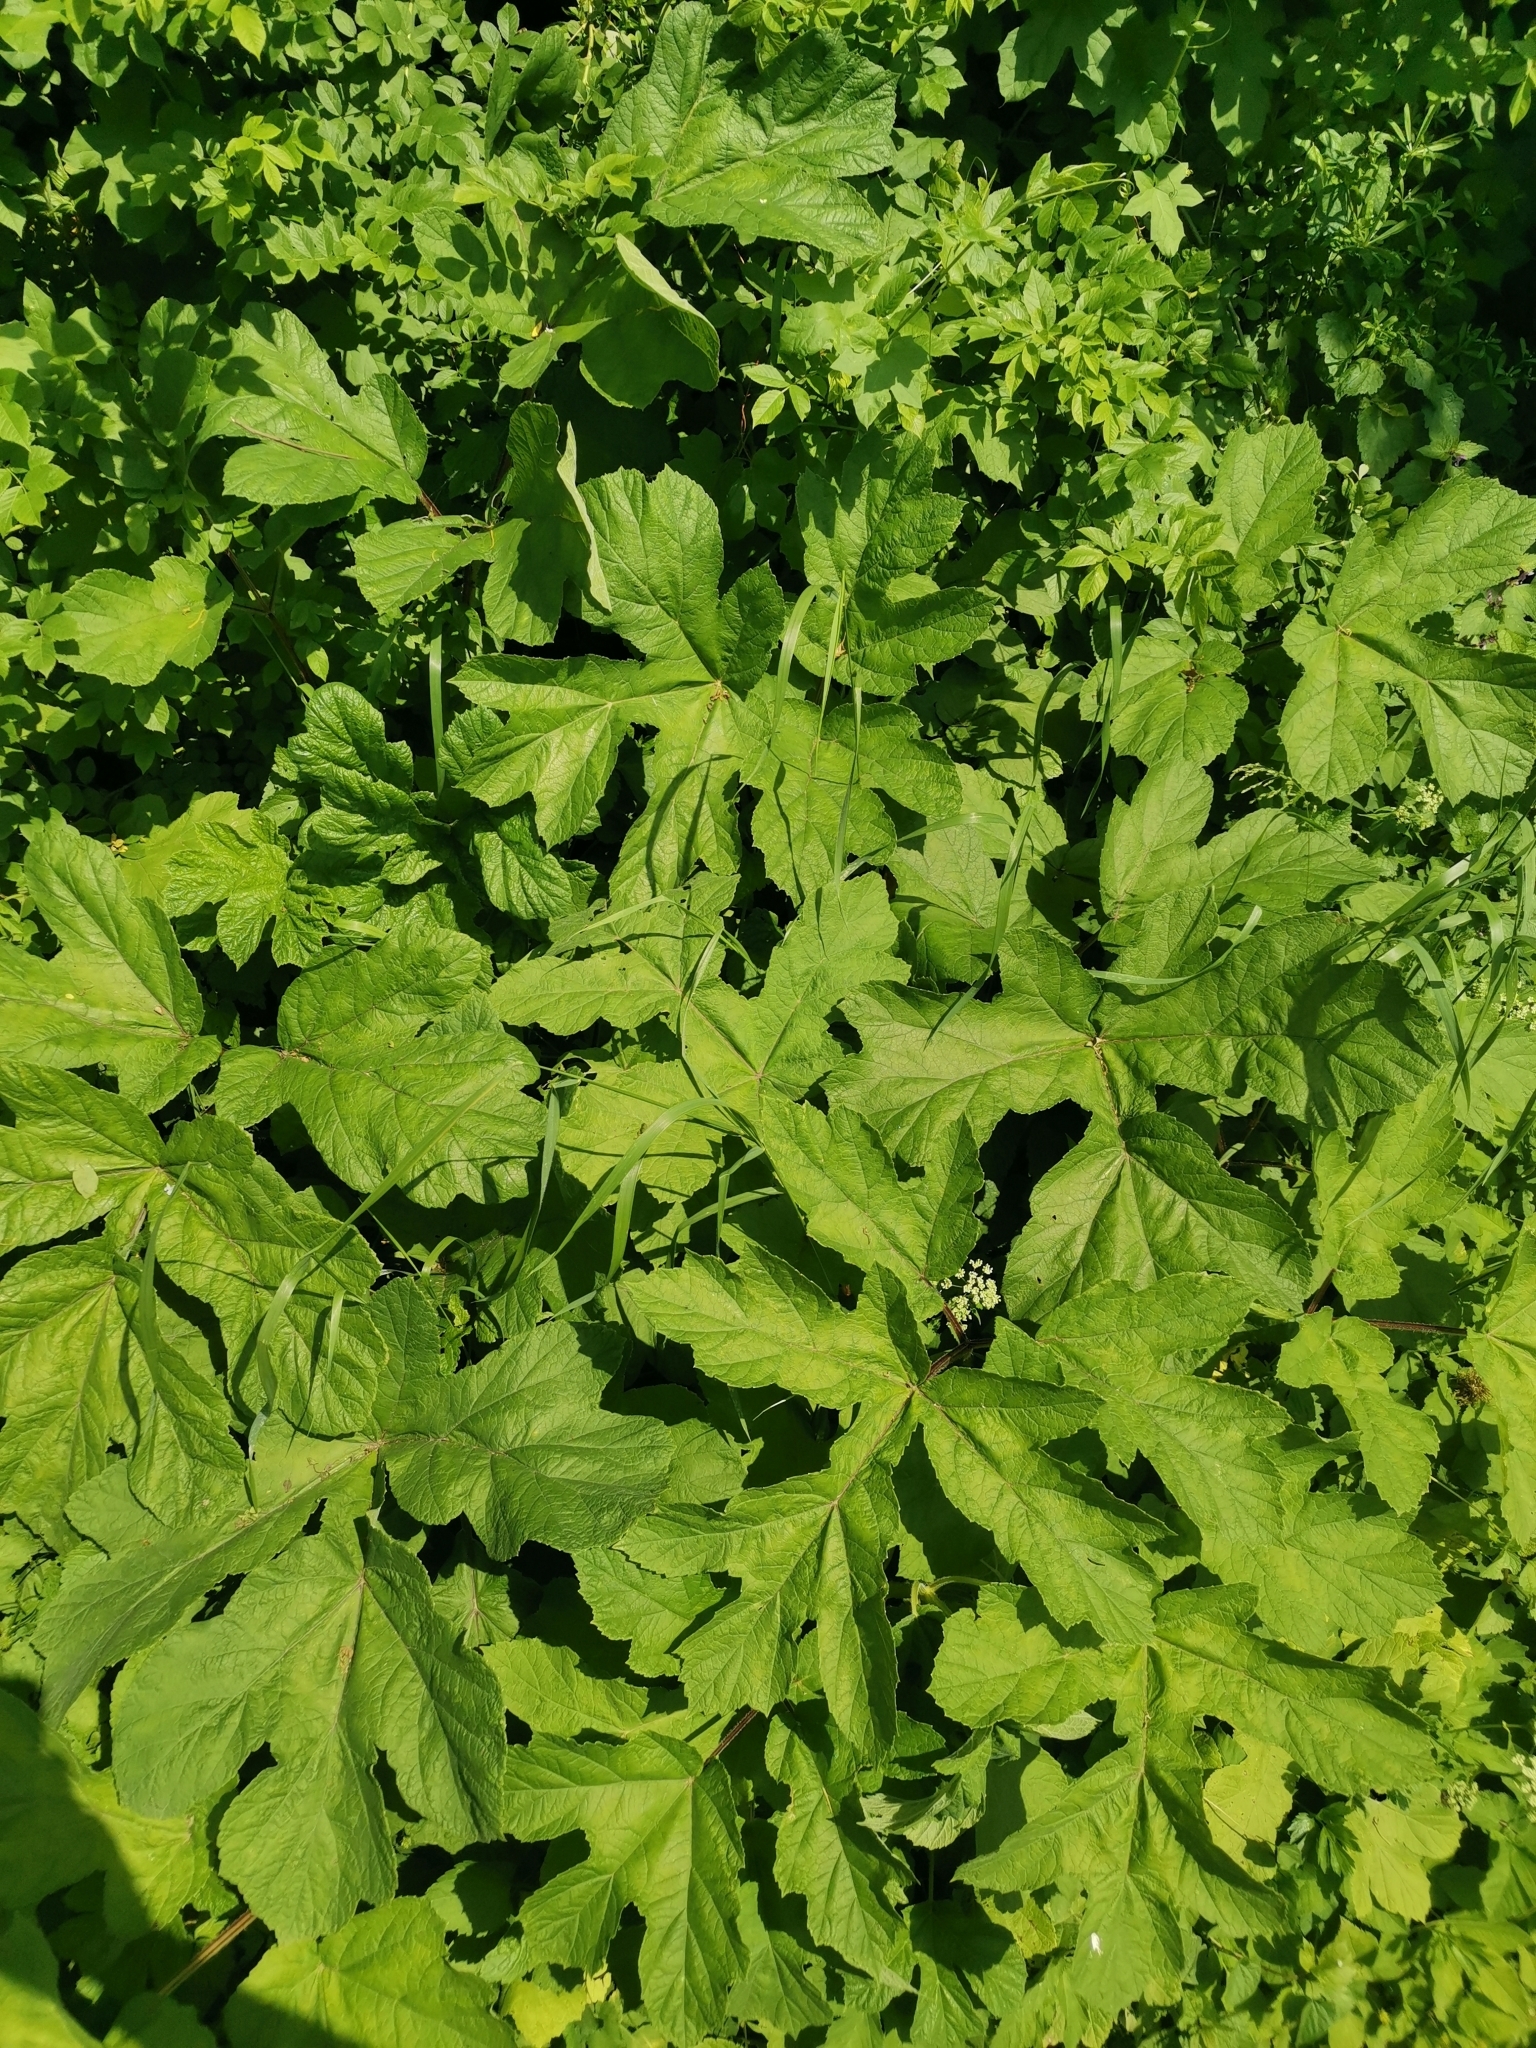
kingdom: Plantae
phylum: Tracheophyta
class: Magnoliopsida
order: Apiales
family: Apiaceae
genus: Heracleum
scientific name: Heracleum sphondylium
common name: Hogweed
